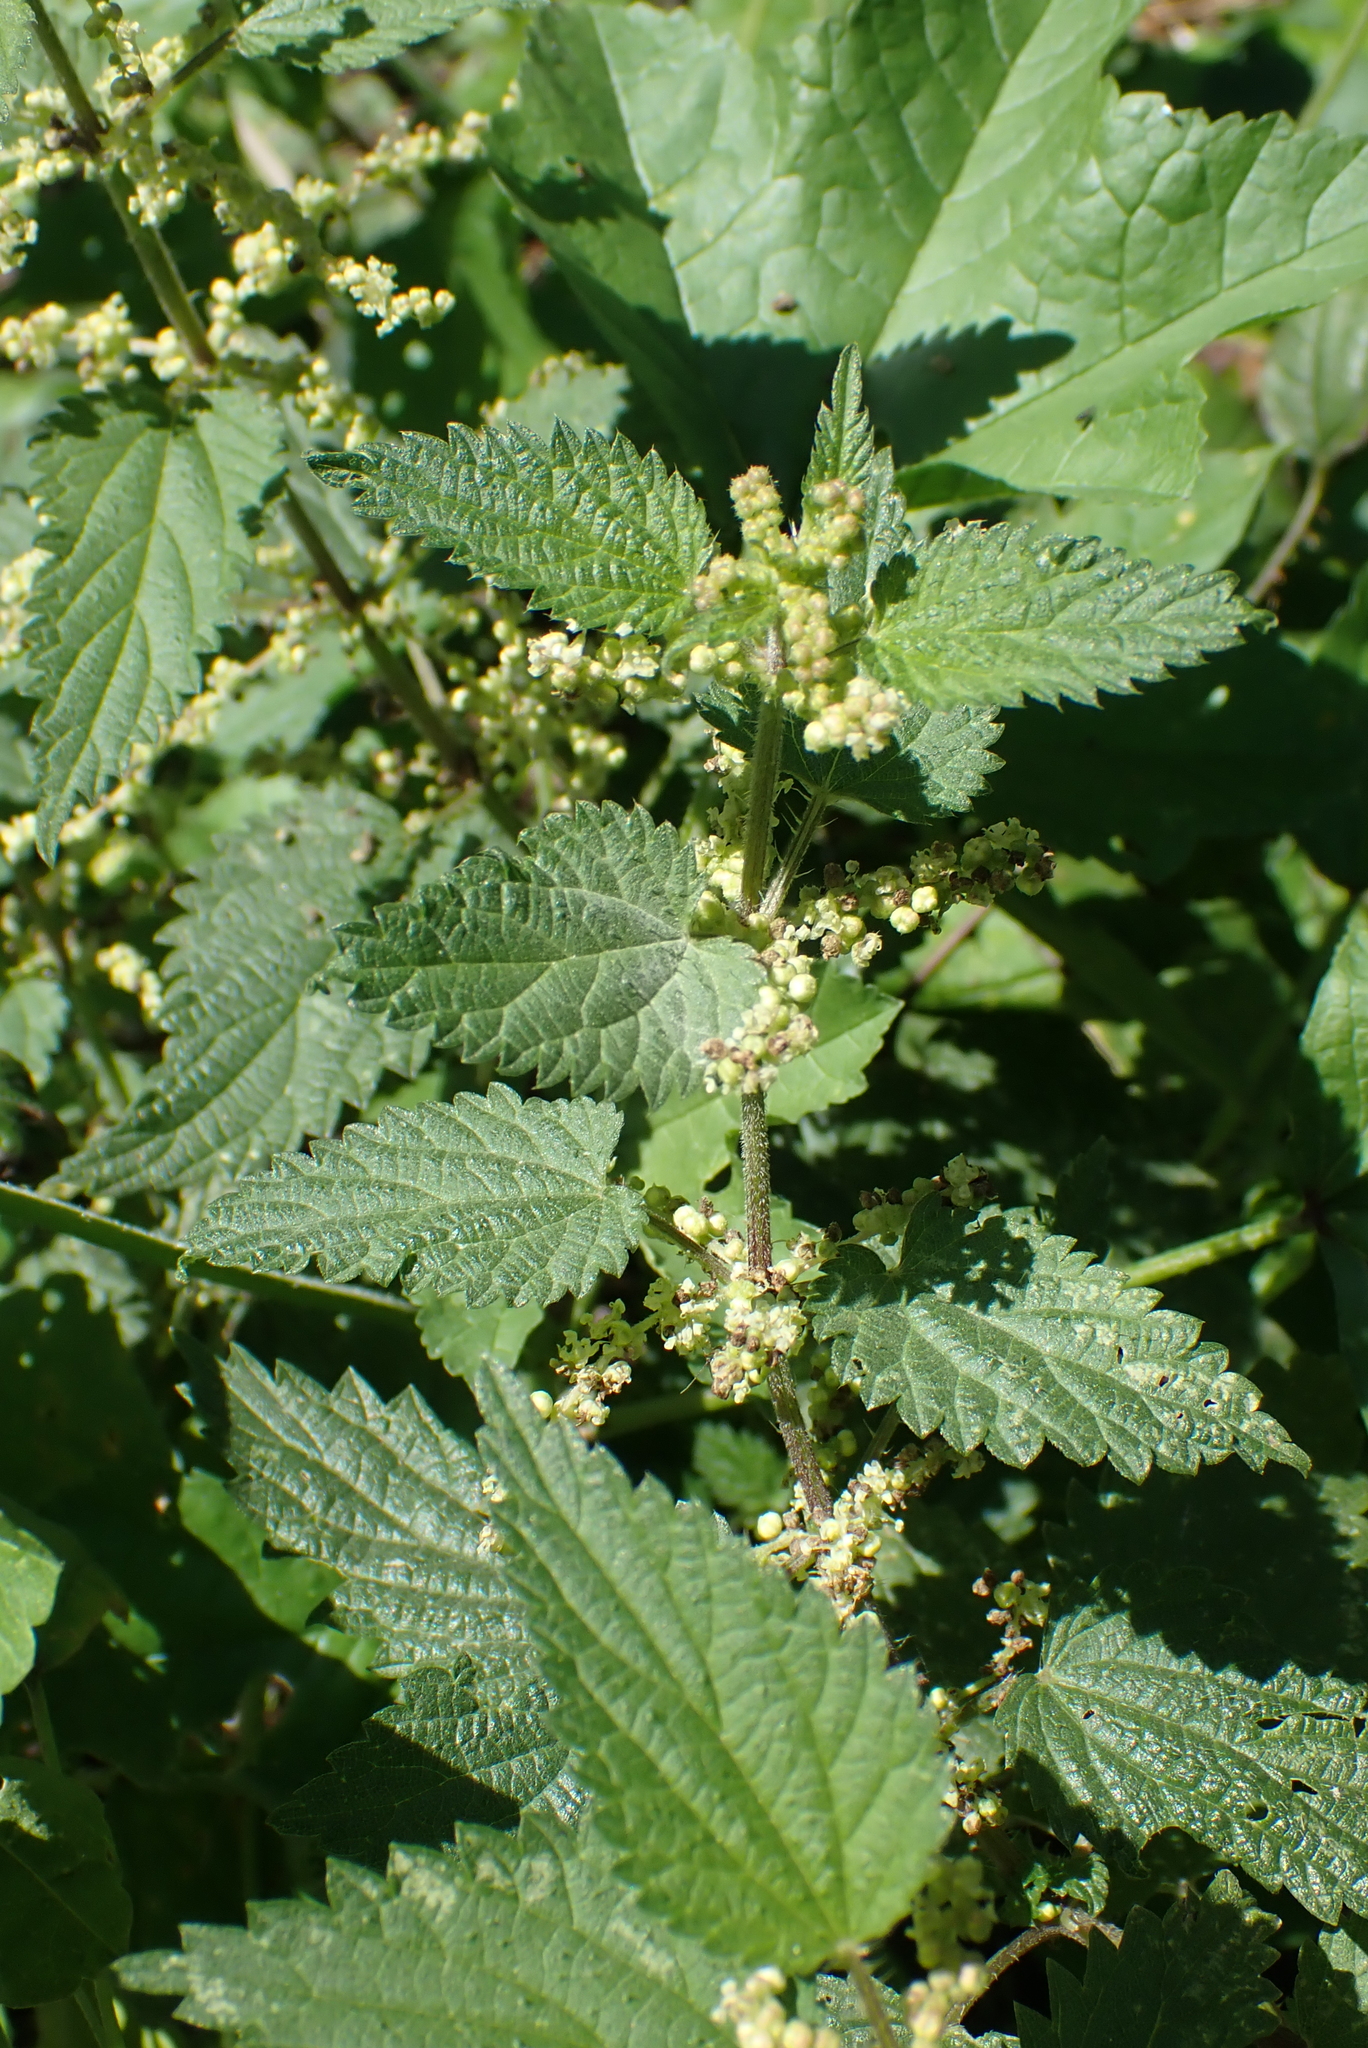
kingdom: Plantae
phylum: Tracheophyta
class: Magnoliopsida
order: Rosales
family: Urticaceae
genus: Urtica
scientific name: Urtica dioica
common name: Common nettle
